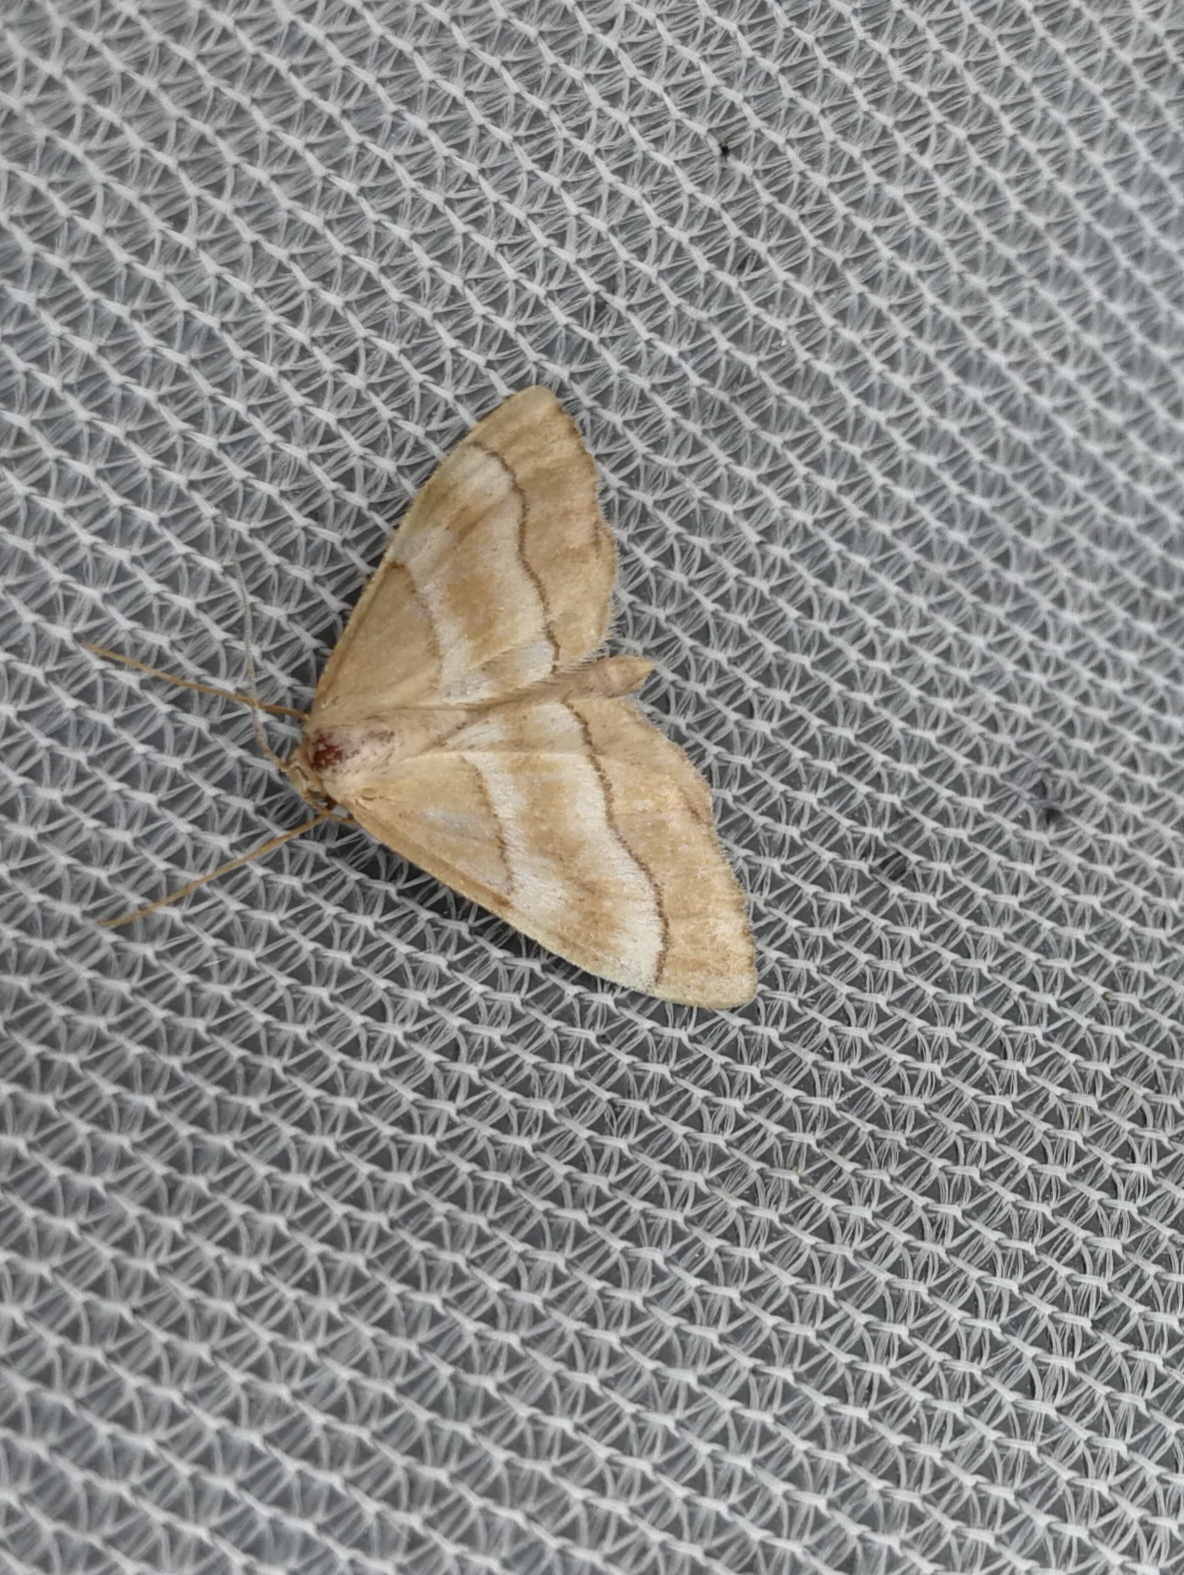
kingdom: Animalia
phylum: Arthropoda
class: Insecta
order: Lepidoptera
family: Geometridae
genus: Idaea
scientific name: Idaea circuitaria
